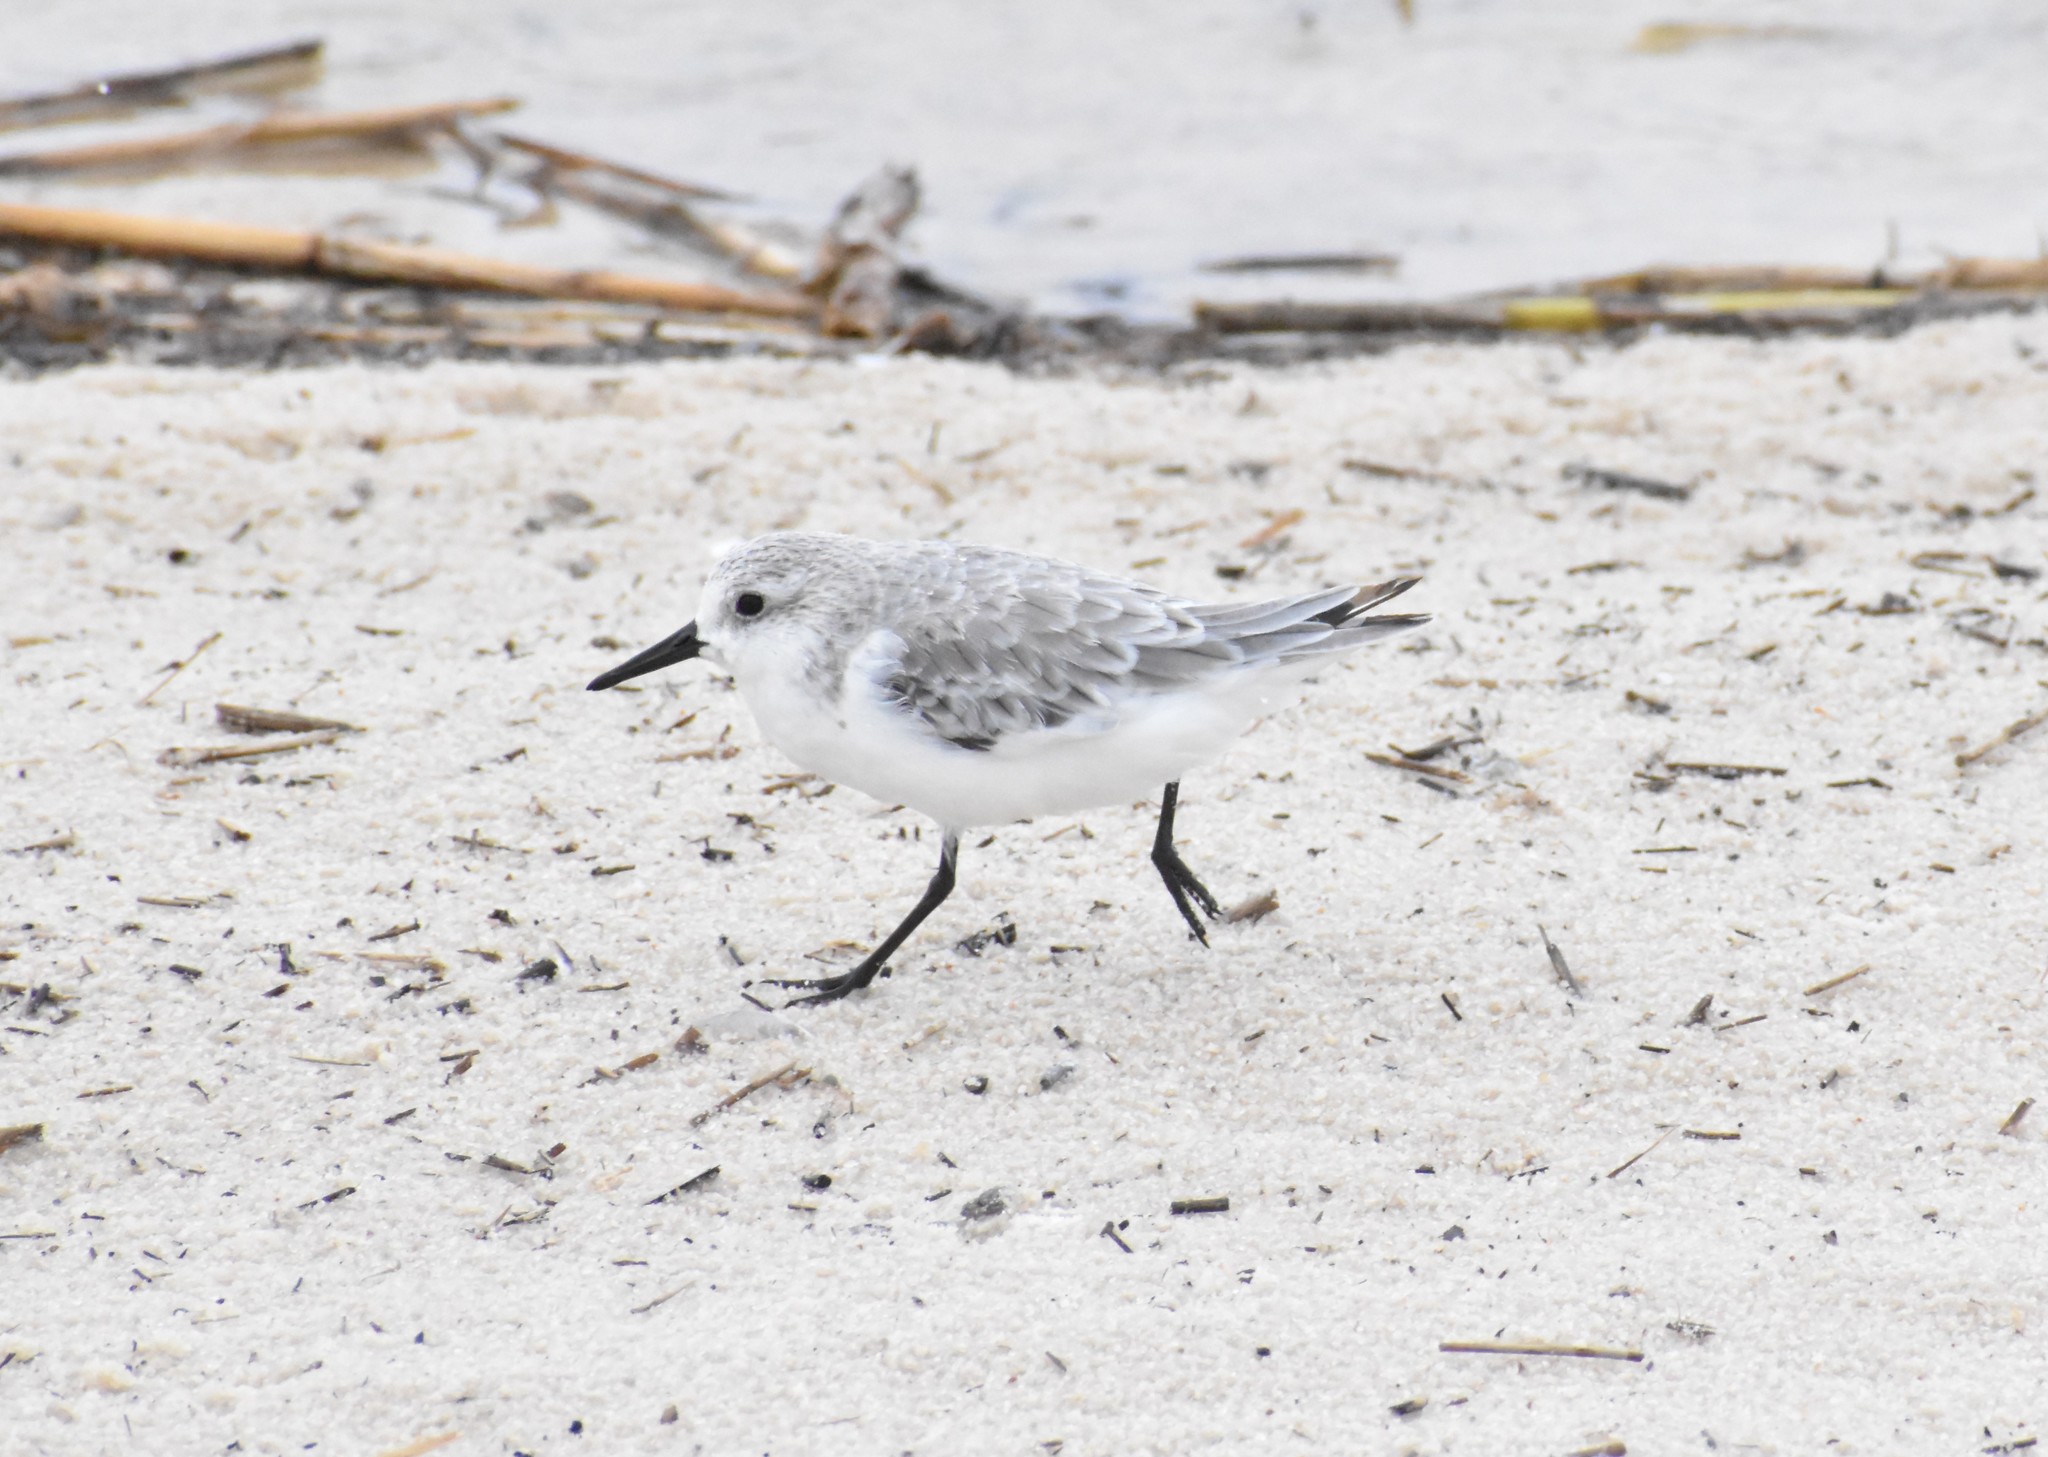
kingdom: Animalia
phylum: Chordata
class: Aves
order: Charadriiformes
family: Scolopacidae
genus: Calidris
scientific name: Calidris alba
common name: Sanderling
